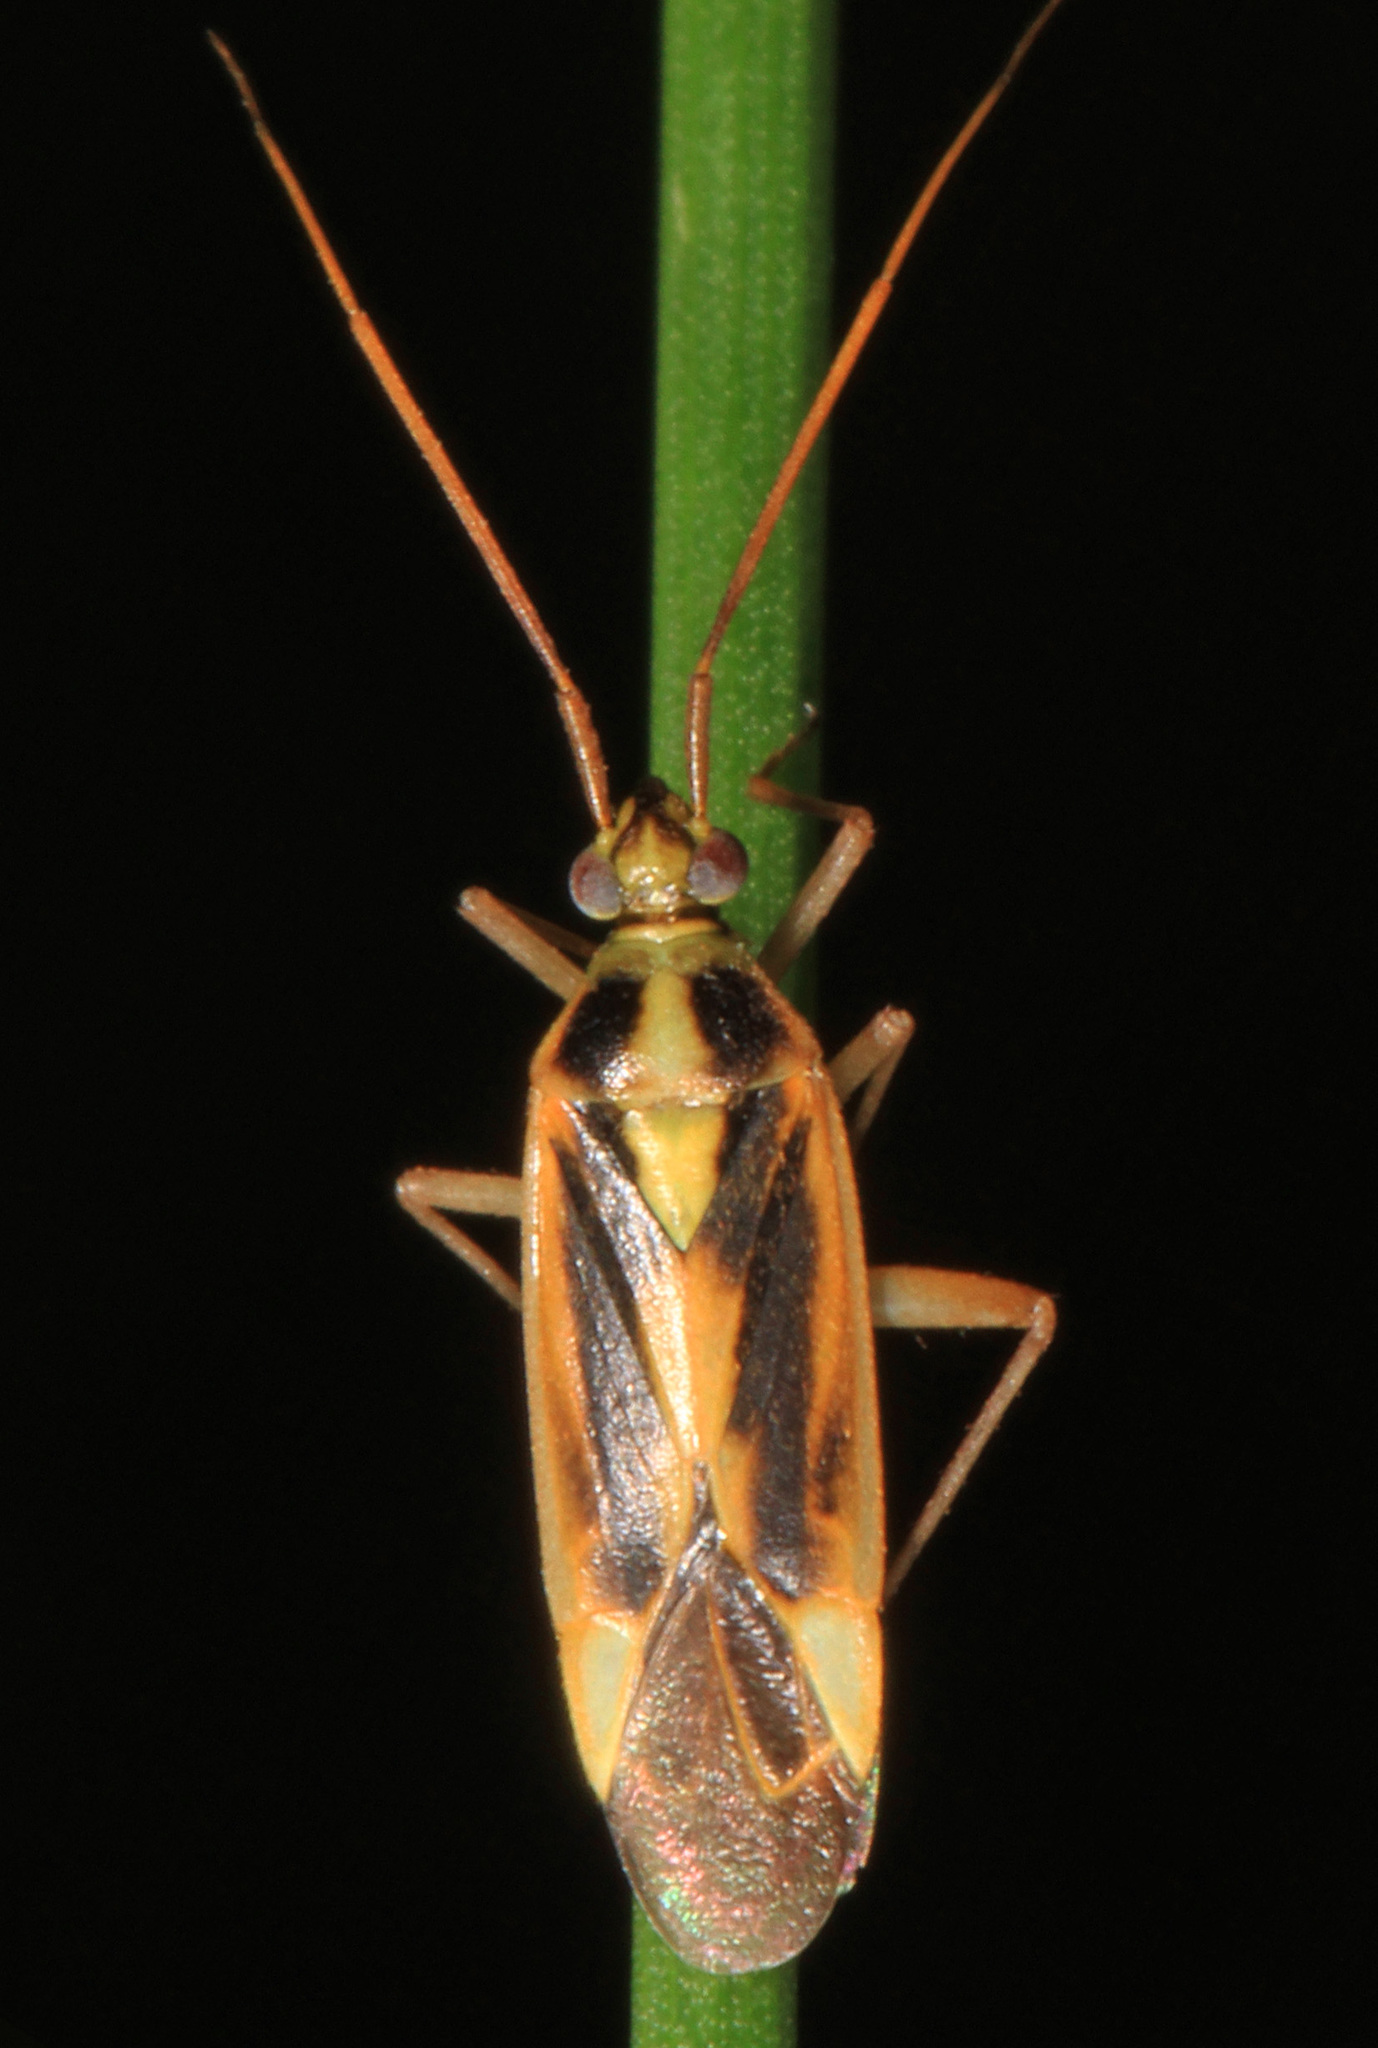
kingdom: Animalia
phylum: Arthropoda
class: Insecta
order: Hemiptera
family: Miridae
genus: Stenotus
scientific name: Stenotus binotatus
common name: Plant bug
